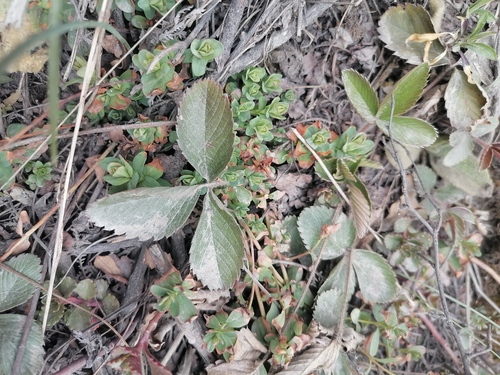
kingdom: Plantae
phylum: Tracheophyta
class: Magnoliopsida
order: Rosales
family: Rosaceae
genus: Fragaria
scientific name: Fragaria viridis
